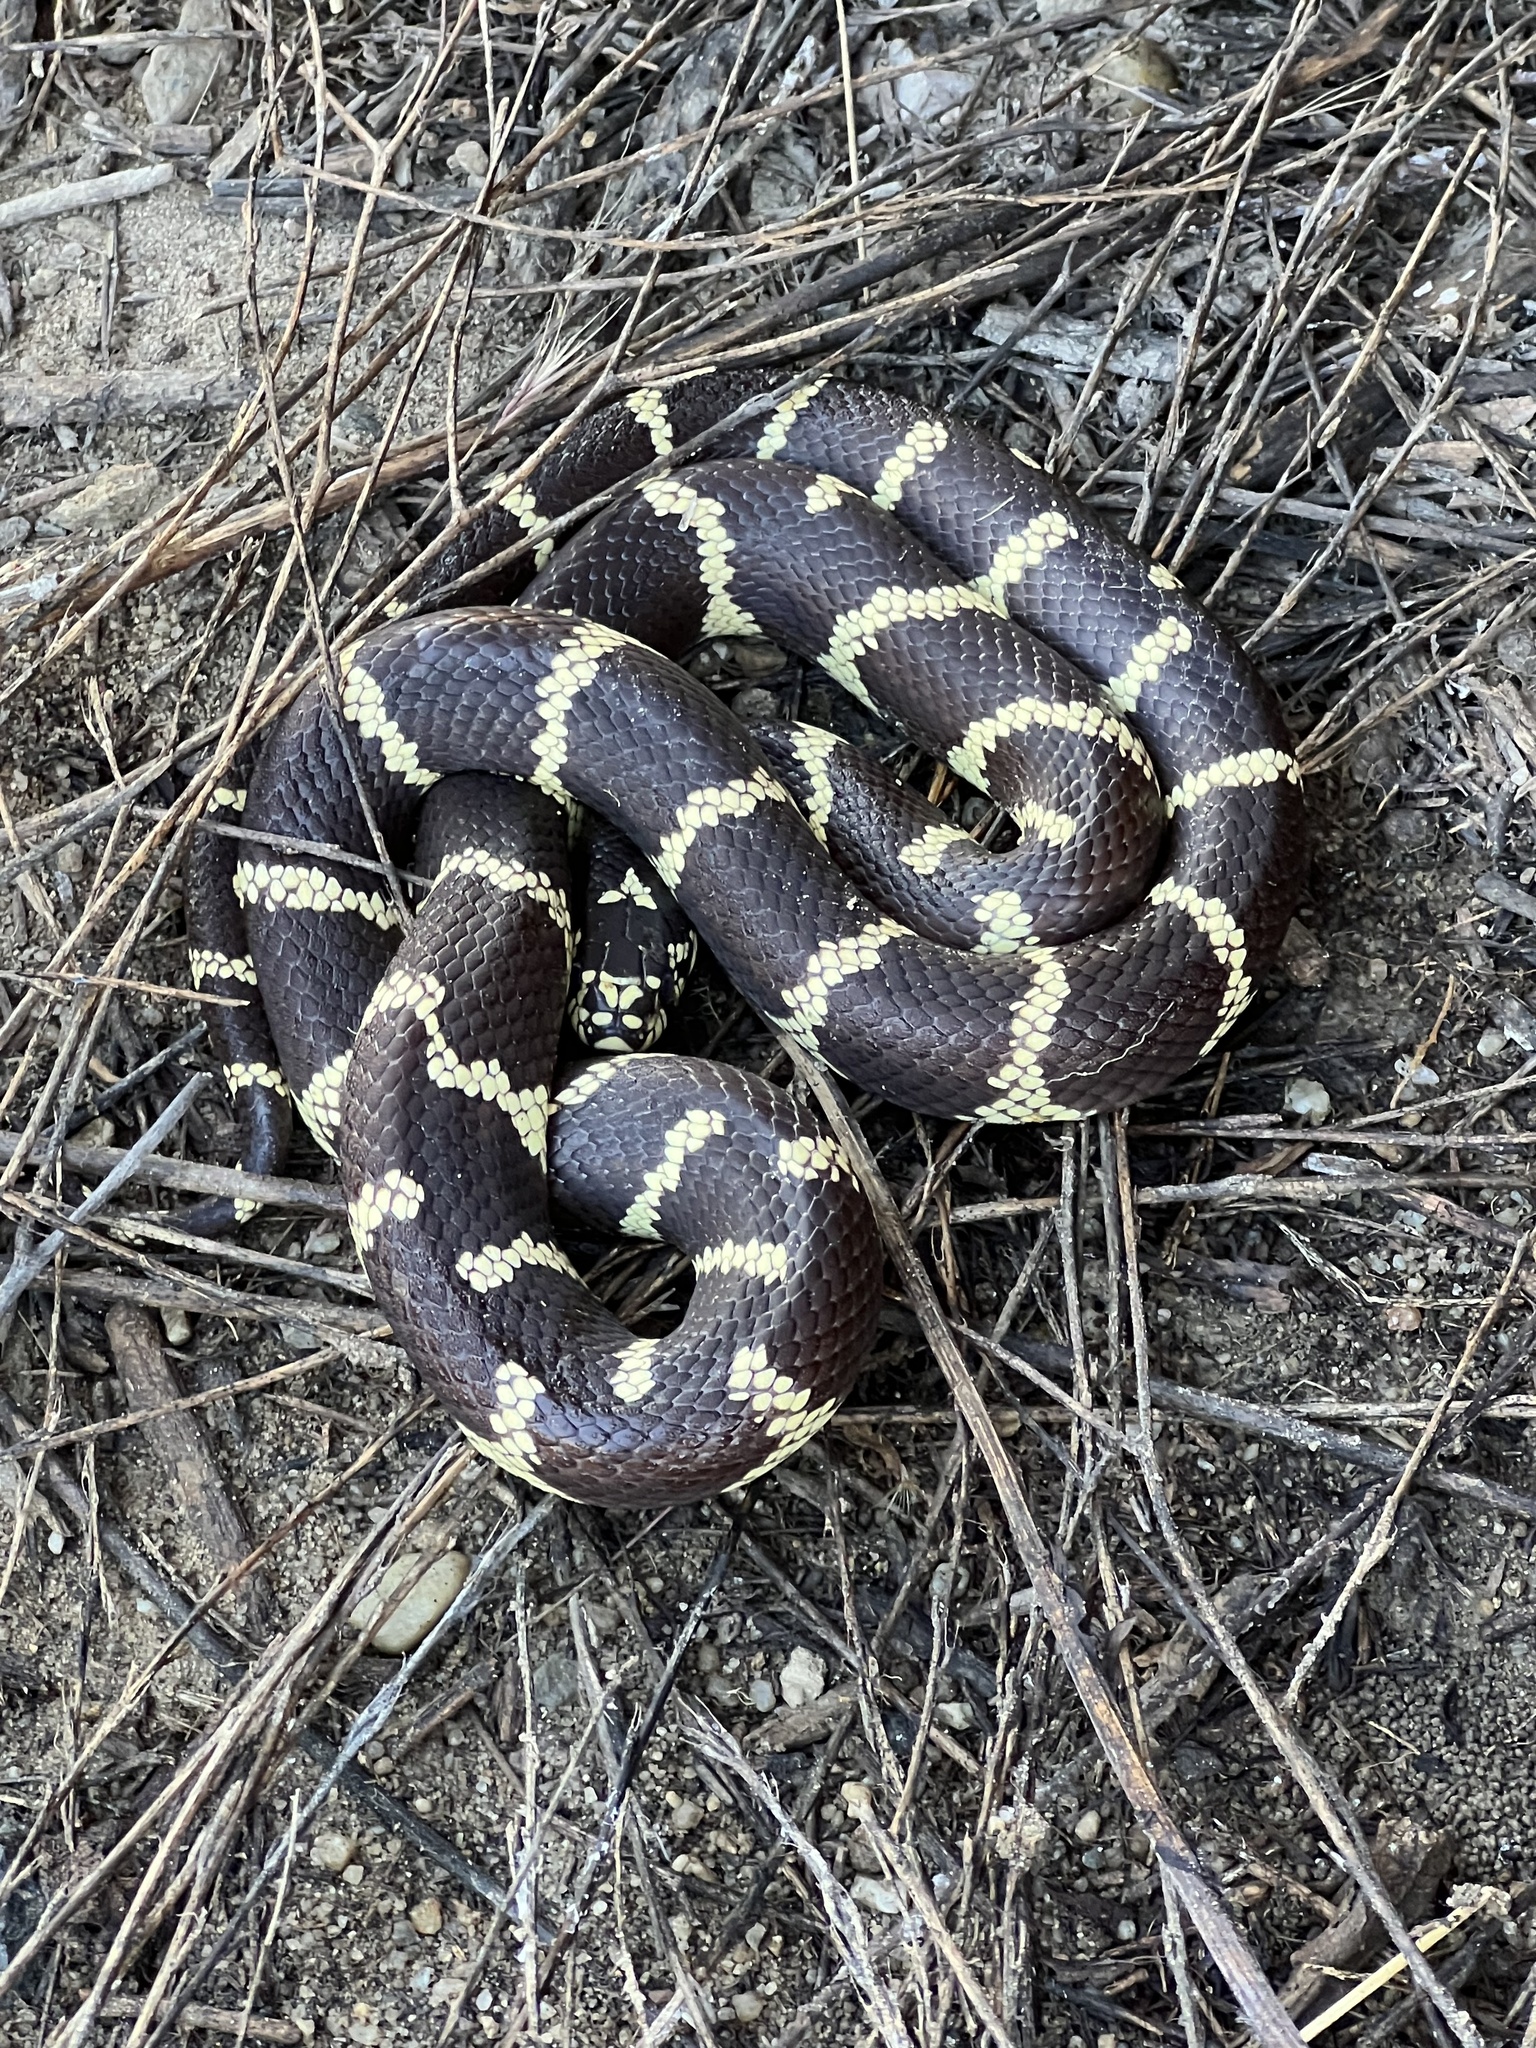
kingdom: Animalia
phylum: Chordata
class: Squamata
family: Colubridae
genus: Lampropeltis
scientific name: Lampropeltis californiae
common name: California kingsnake
